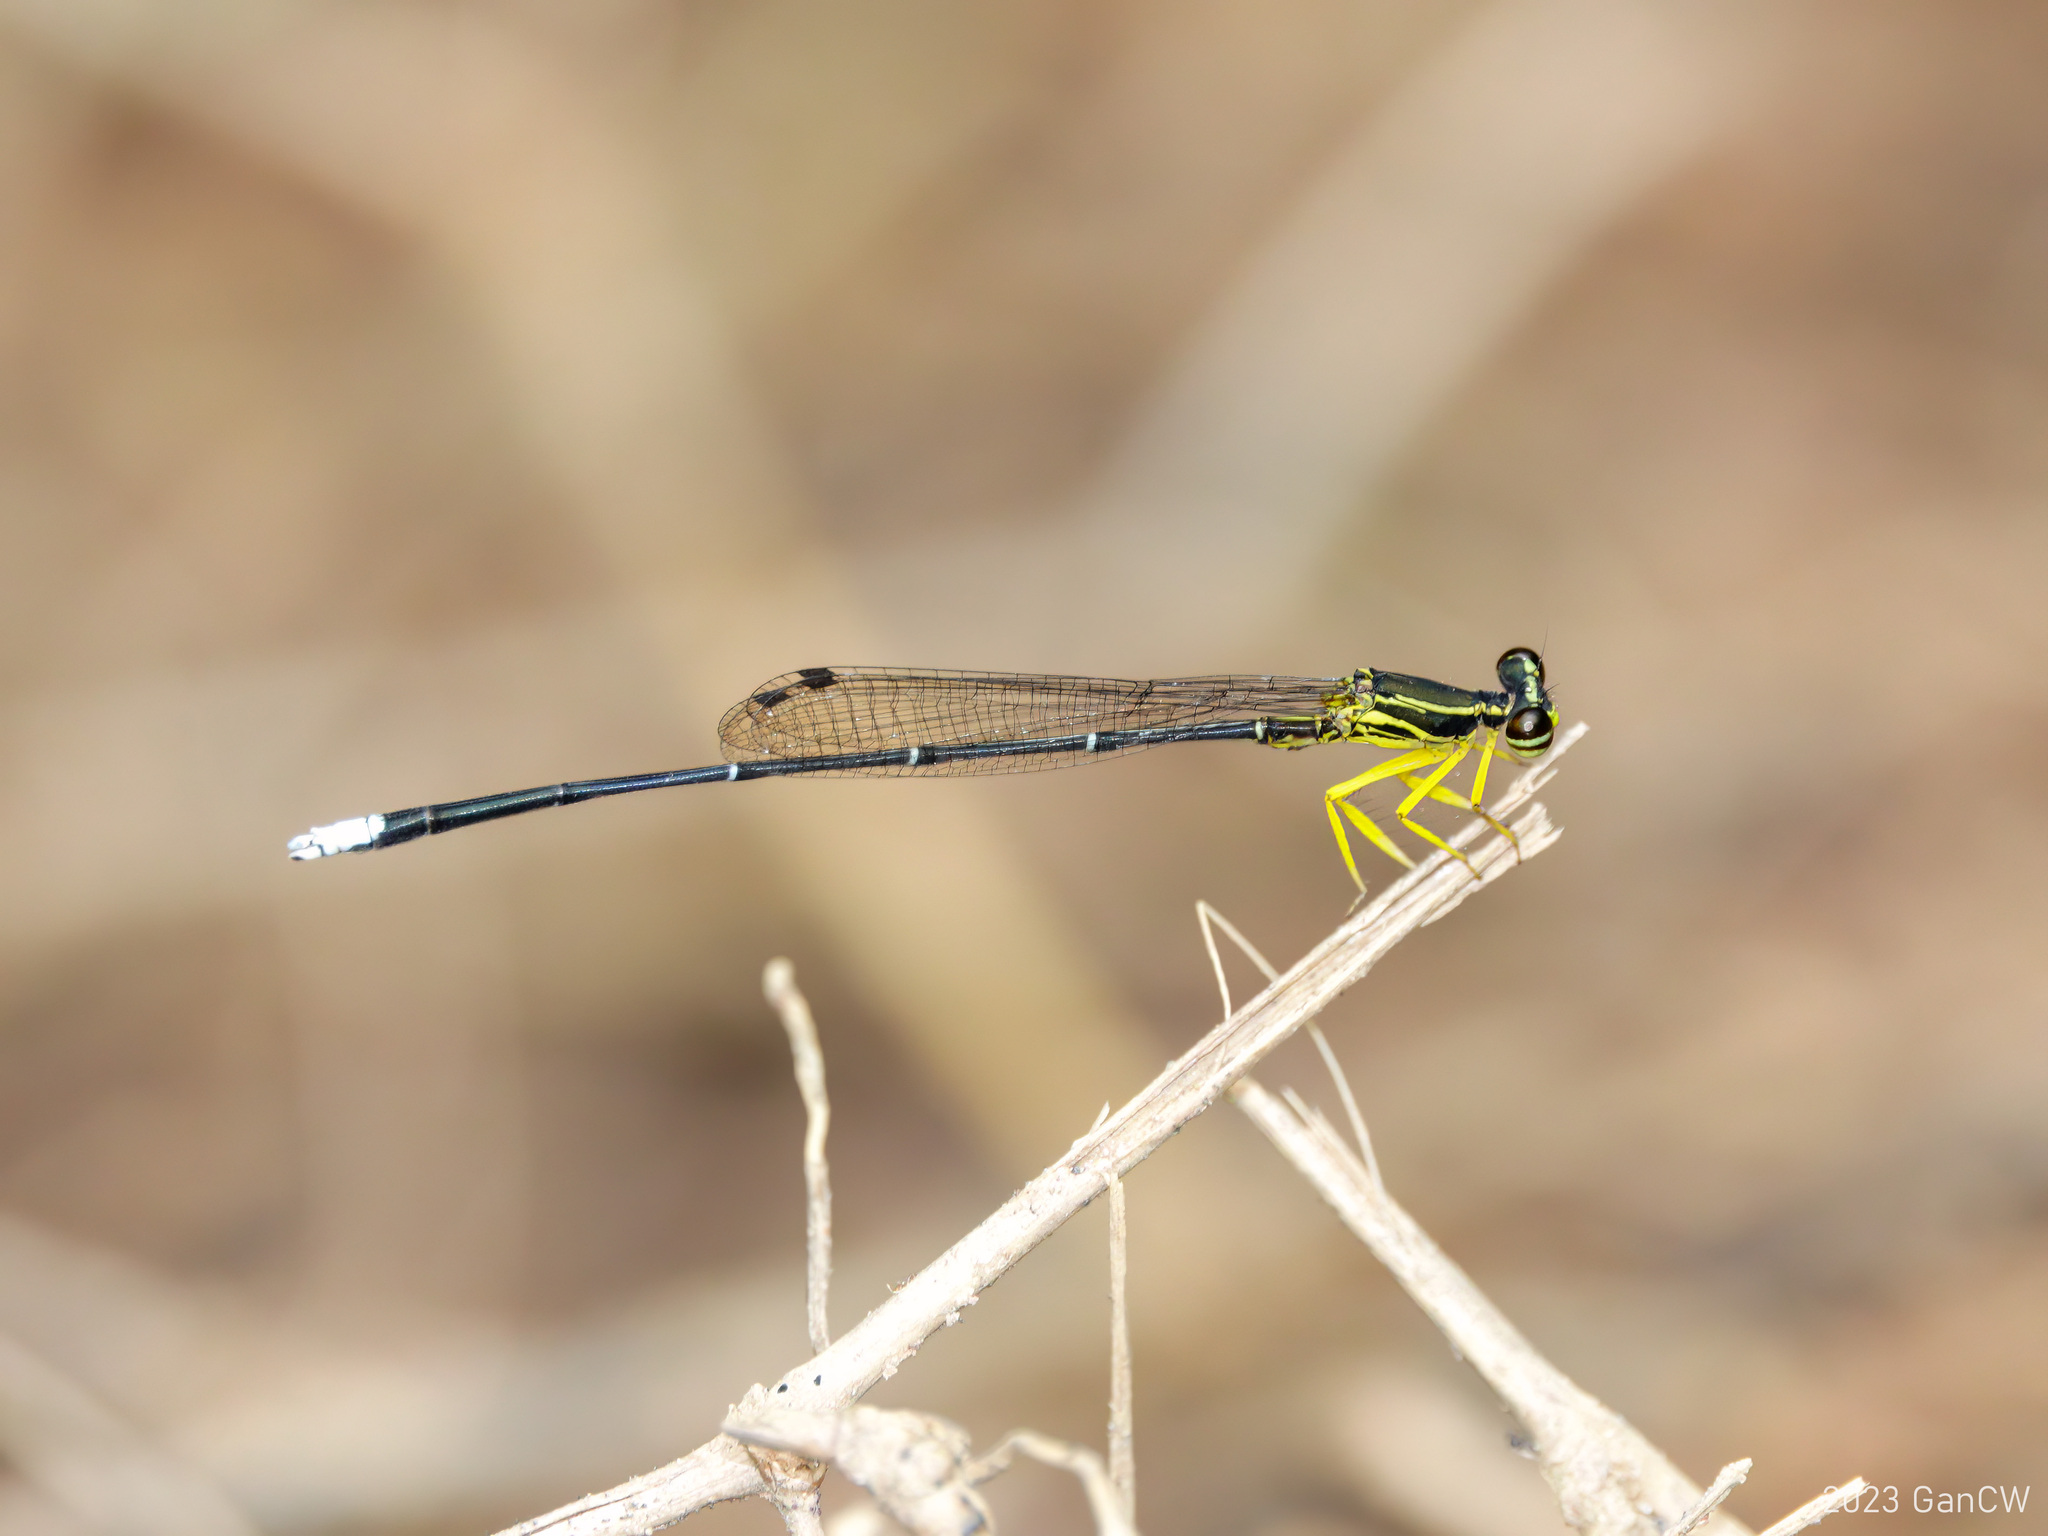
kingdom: Animalia
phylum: Arthropoda
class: Insecta
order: Odonata
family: Platycnemididae
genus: Copera
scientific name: Copera marginipes
